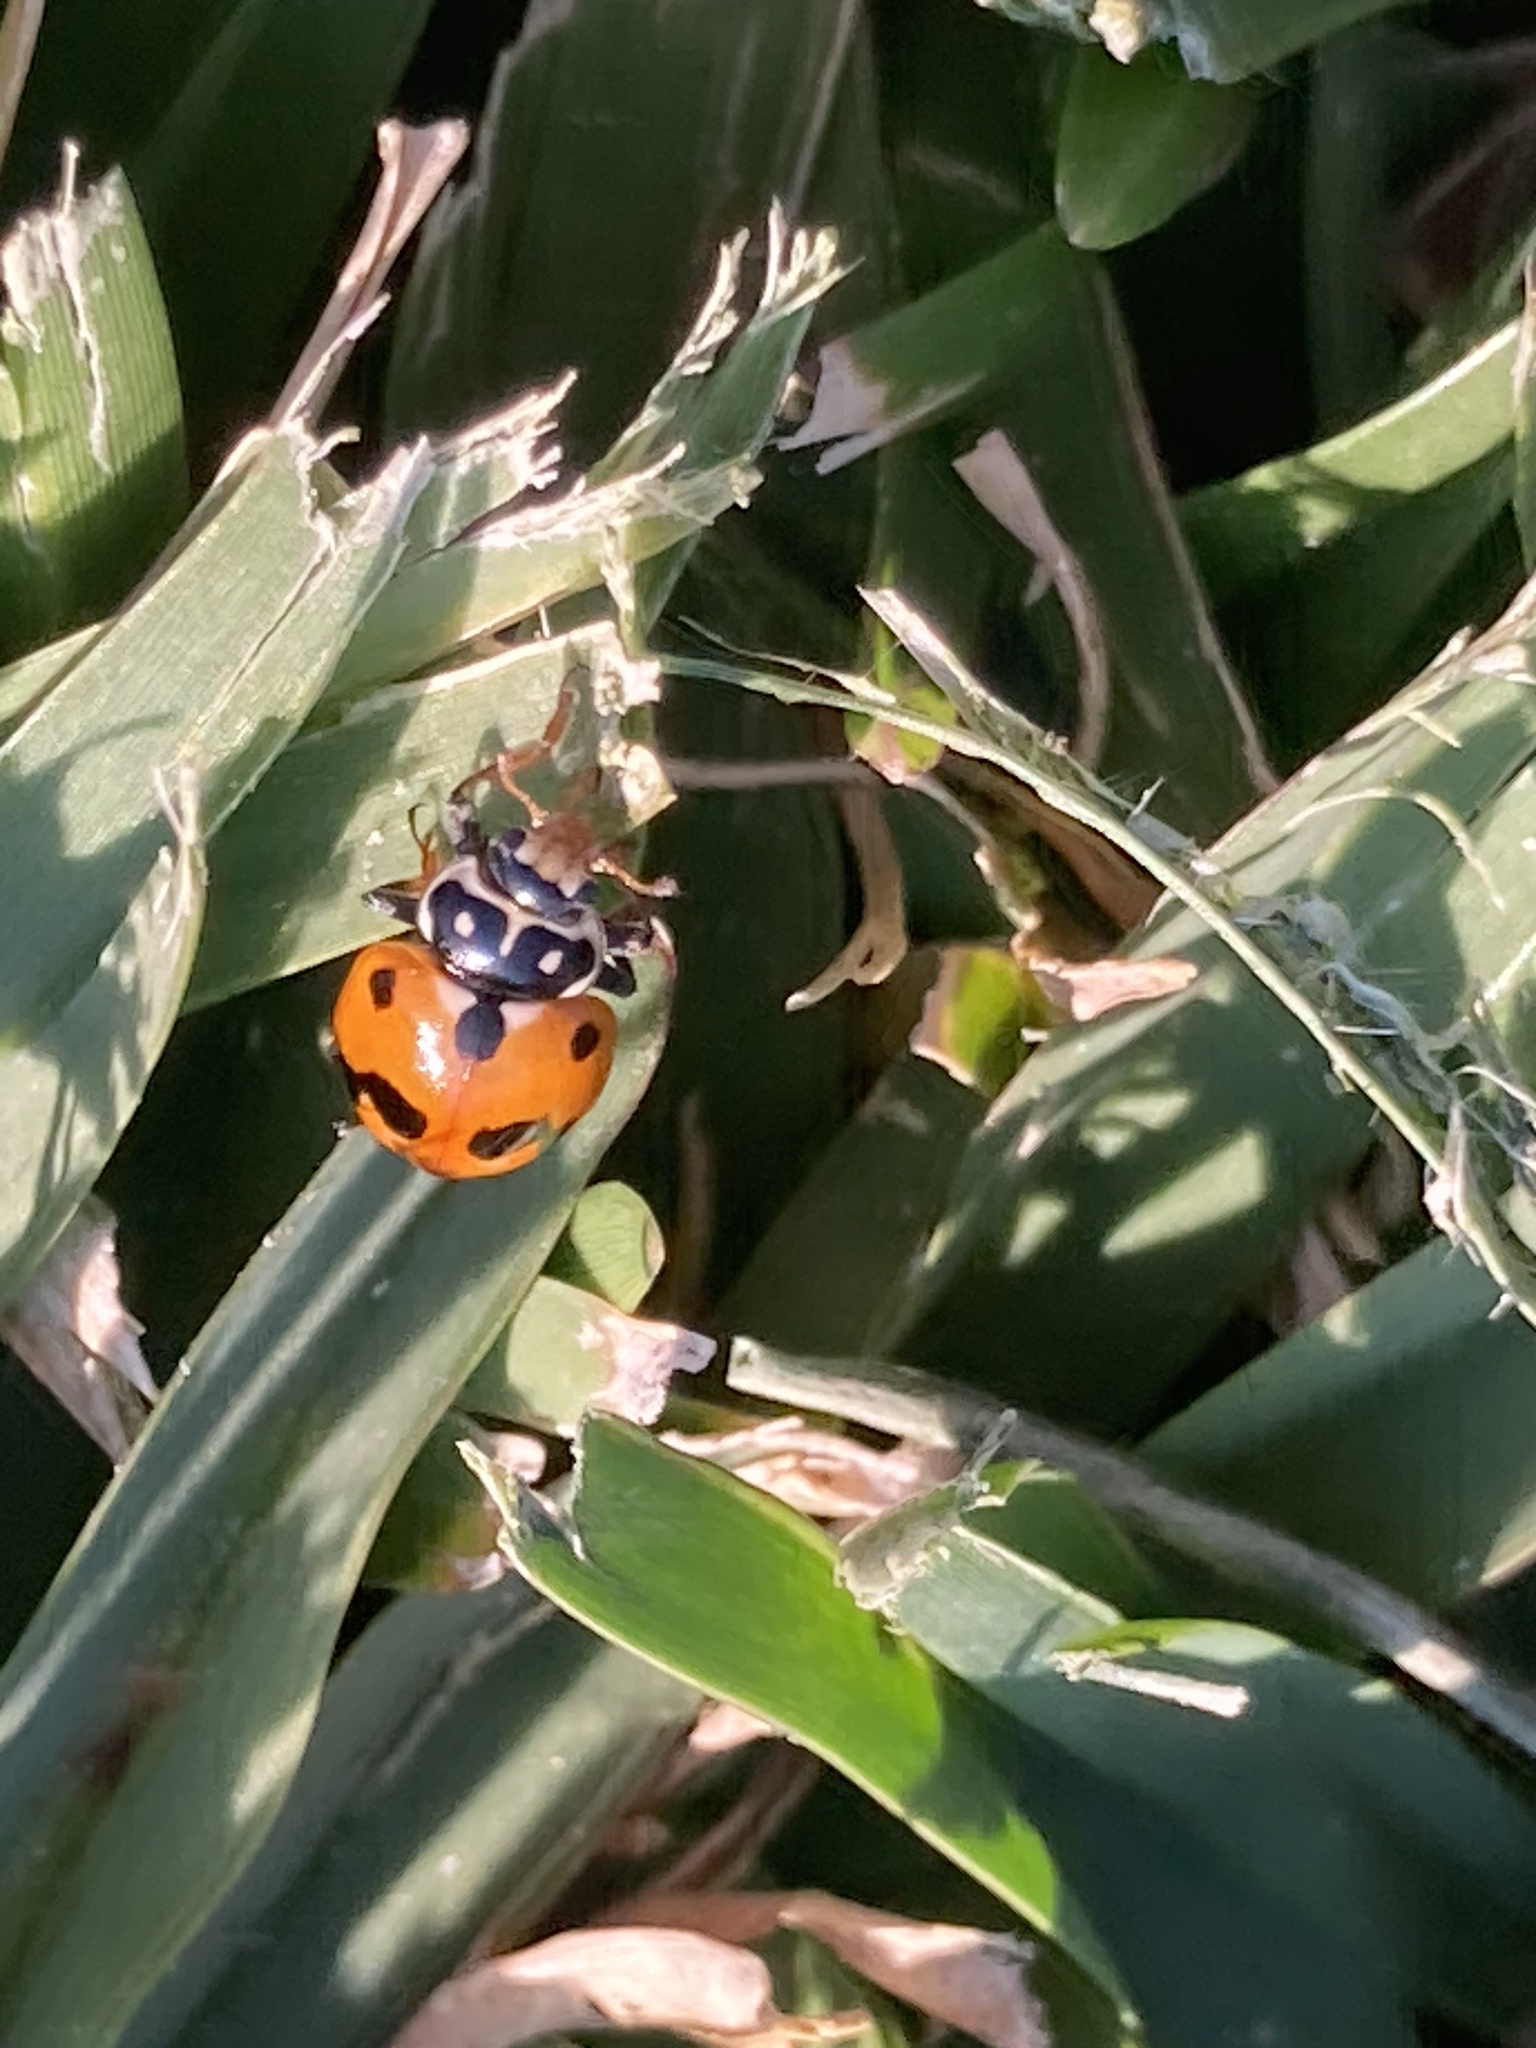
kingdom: Animalia
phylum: Arthropoda
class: Insecta
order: Coleoptera
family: Coccinellidae
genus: Hippodamia
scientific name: Hippodamia variegata
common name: Ladybird beetle
